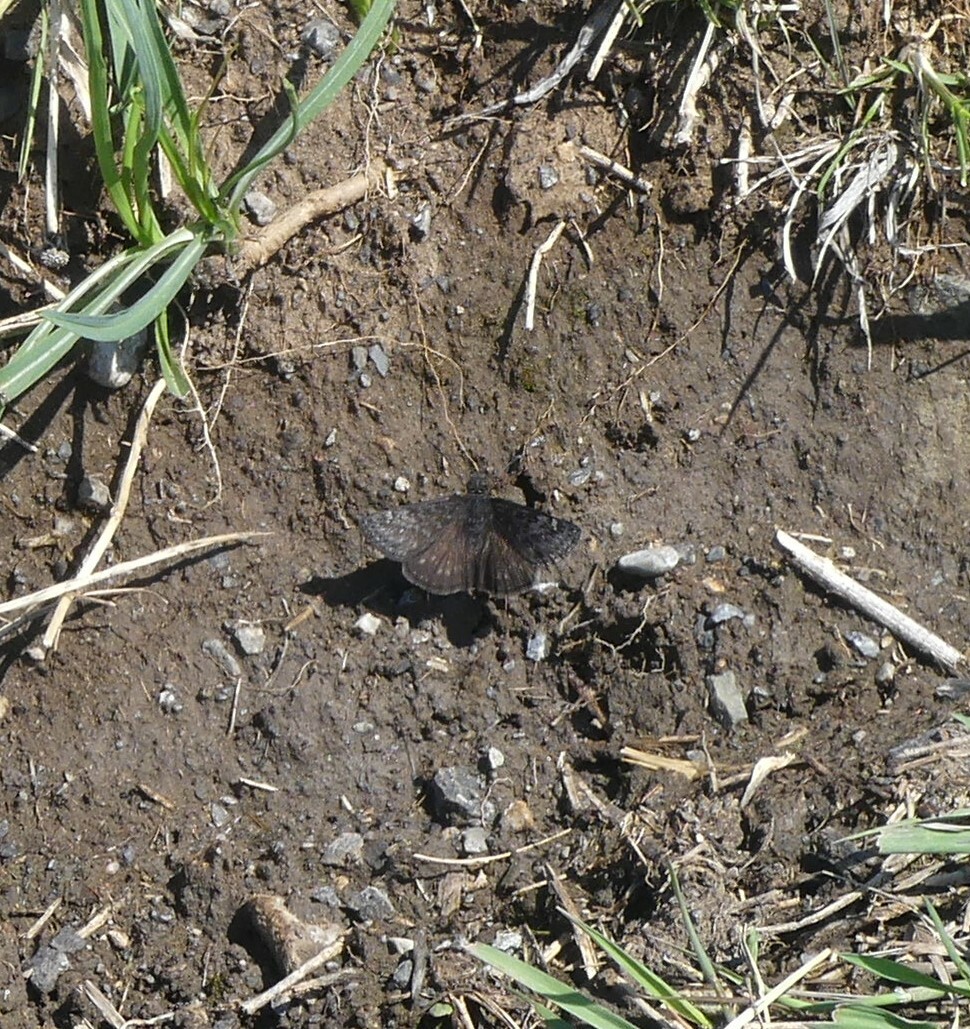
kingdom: Animalia
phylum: Arthropoda
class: Insecta
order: Lepidoptera
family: Hesperiidae
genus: Erynnis
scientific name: Erynnis persius
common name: Persius duskywing
